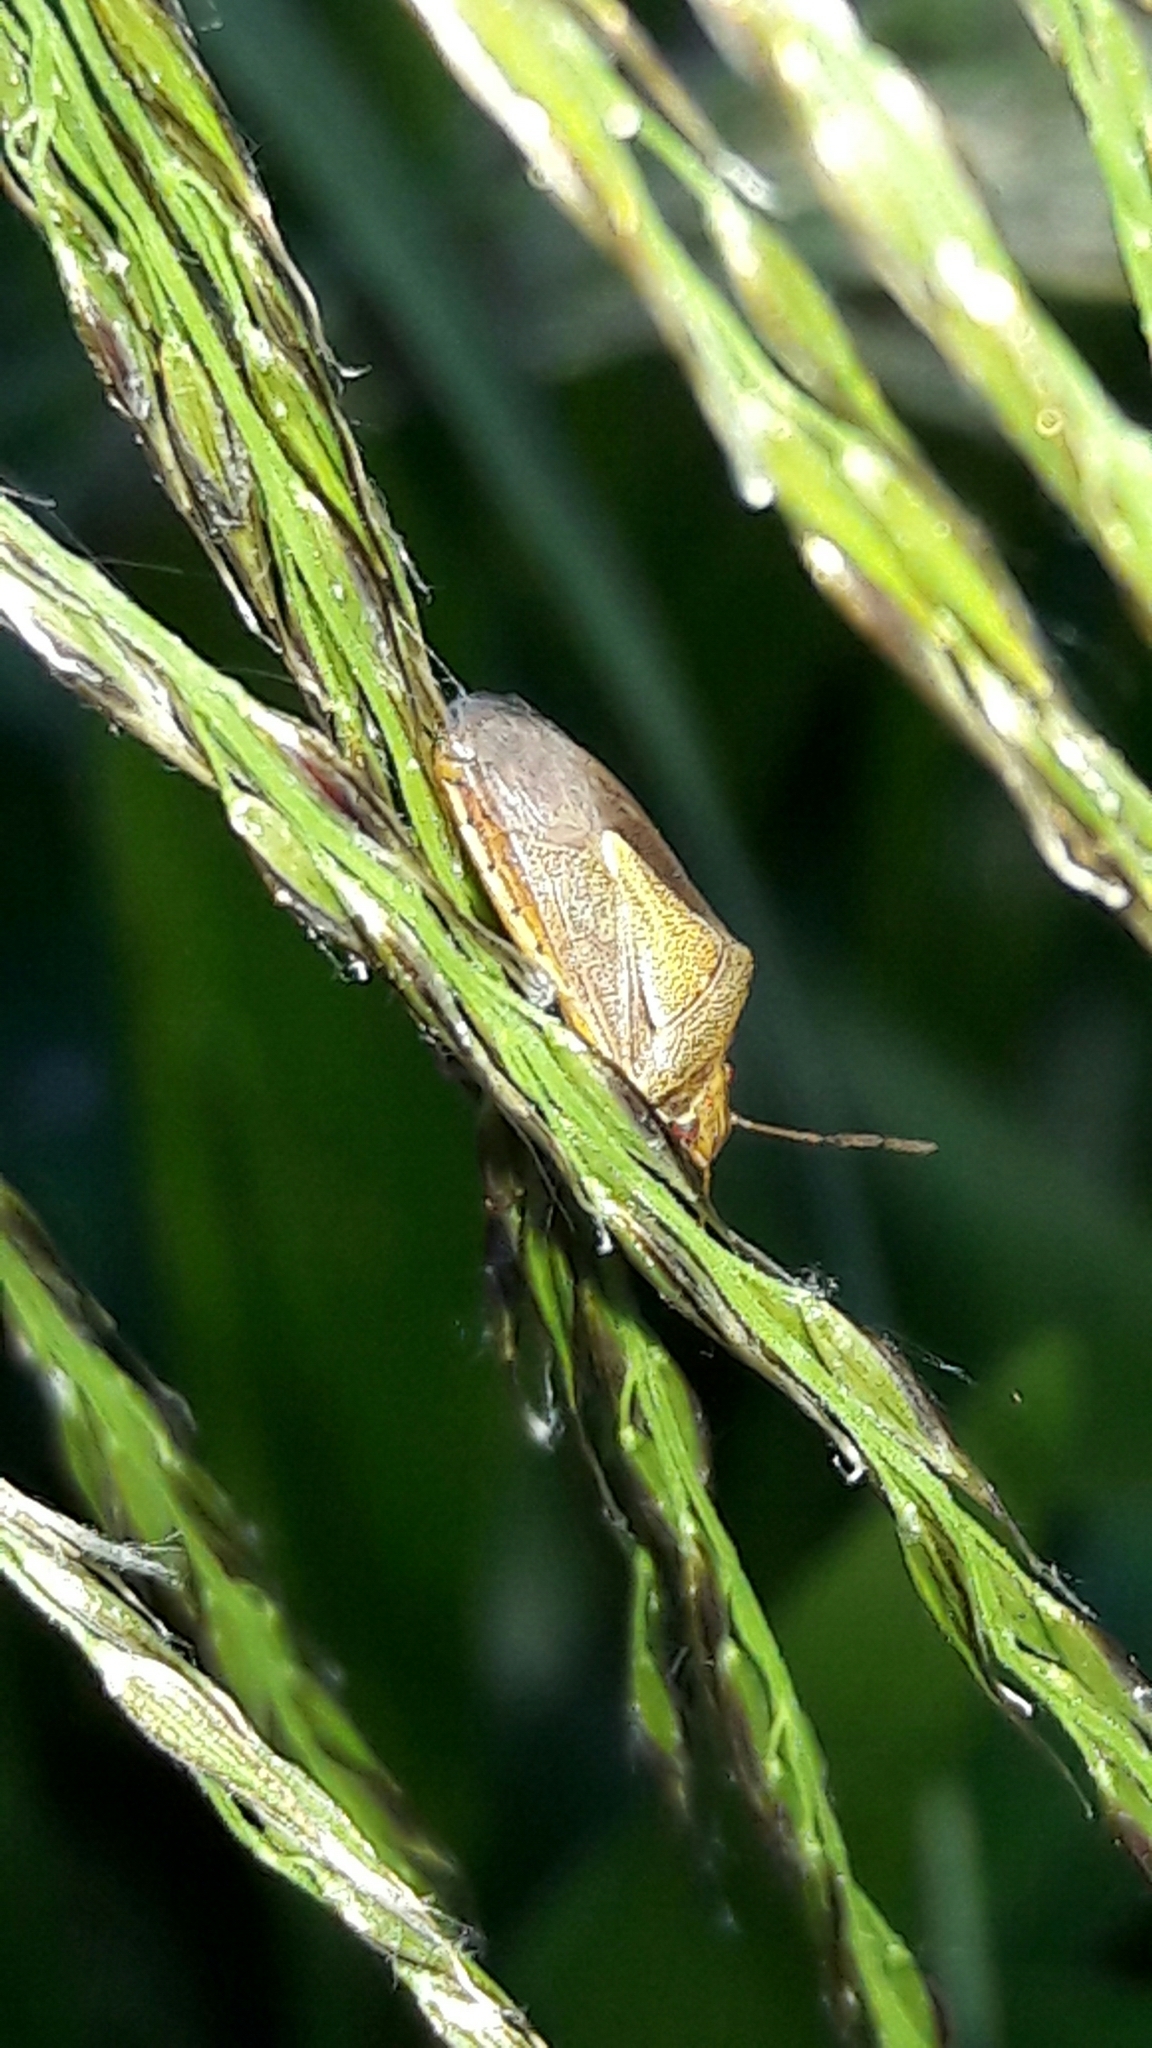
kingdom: Animalia
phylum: Arthropoda
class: Insecta
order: Hemiptera
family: Pentatomidae
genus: Oebalus
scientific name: Oebalus ypsilongriseus
